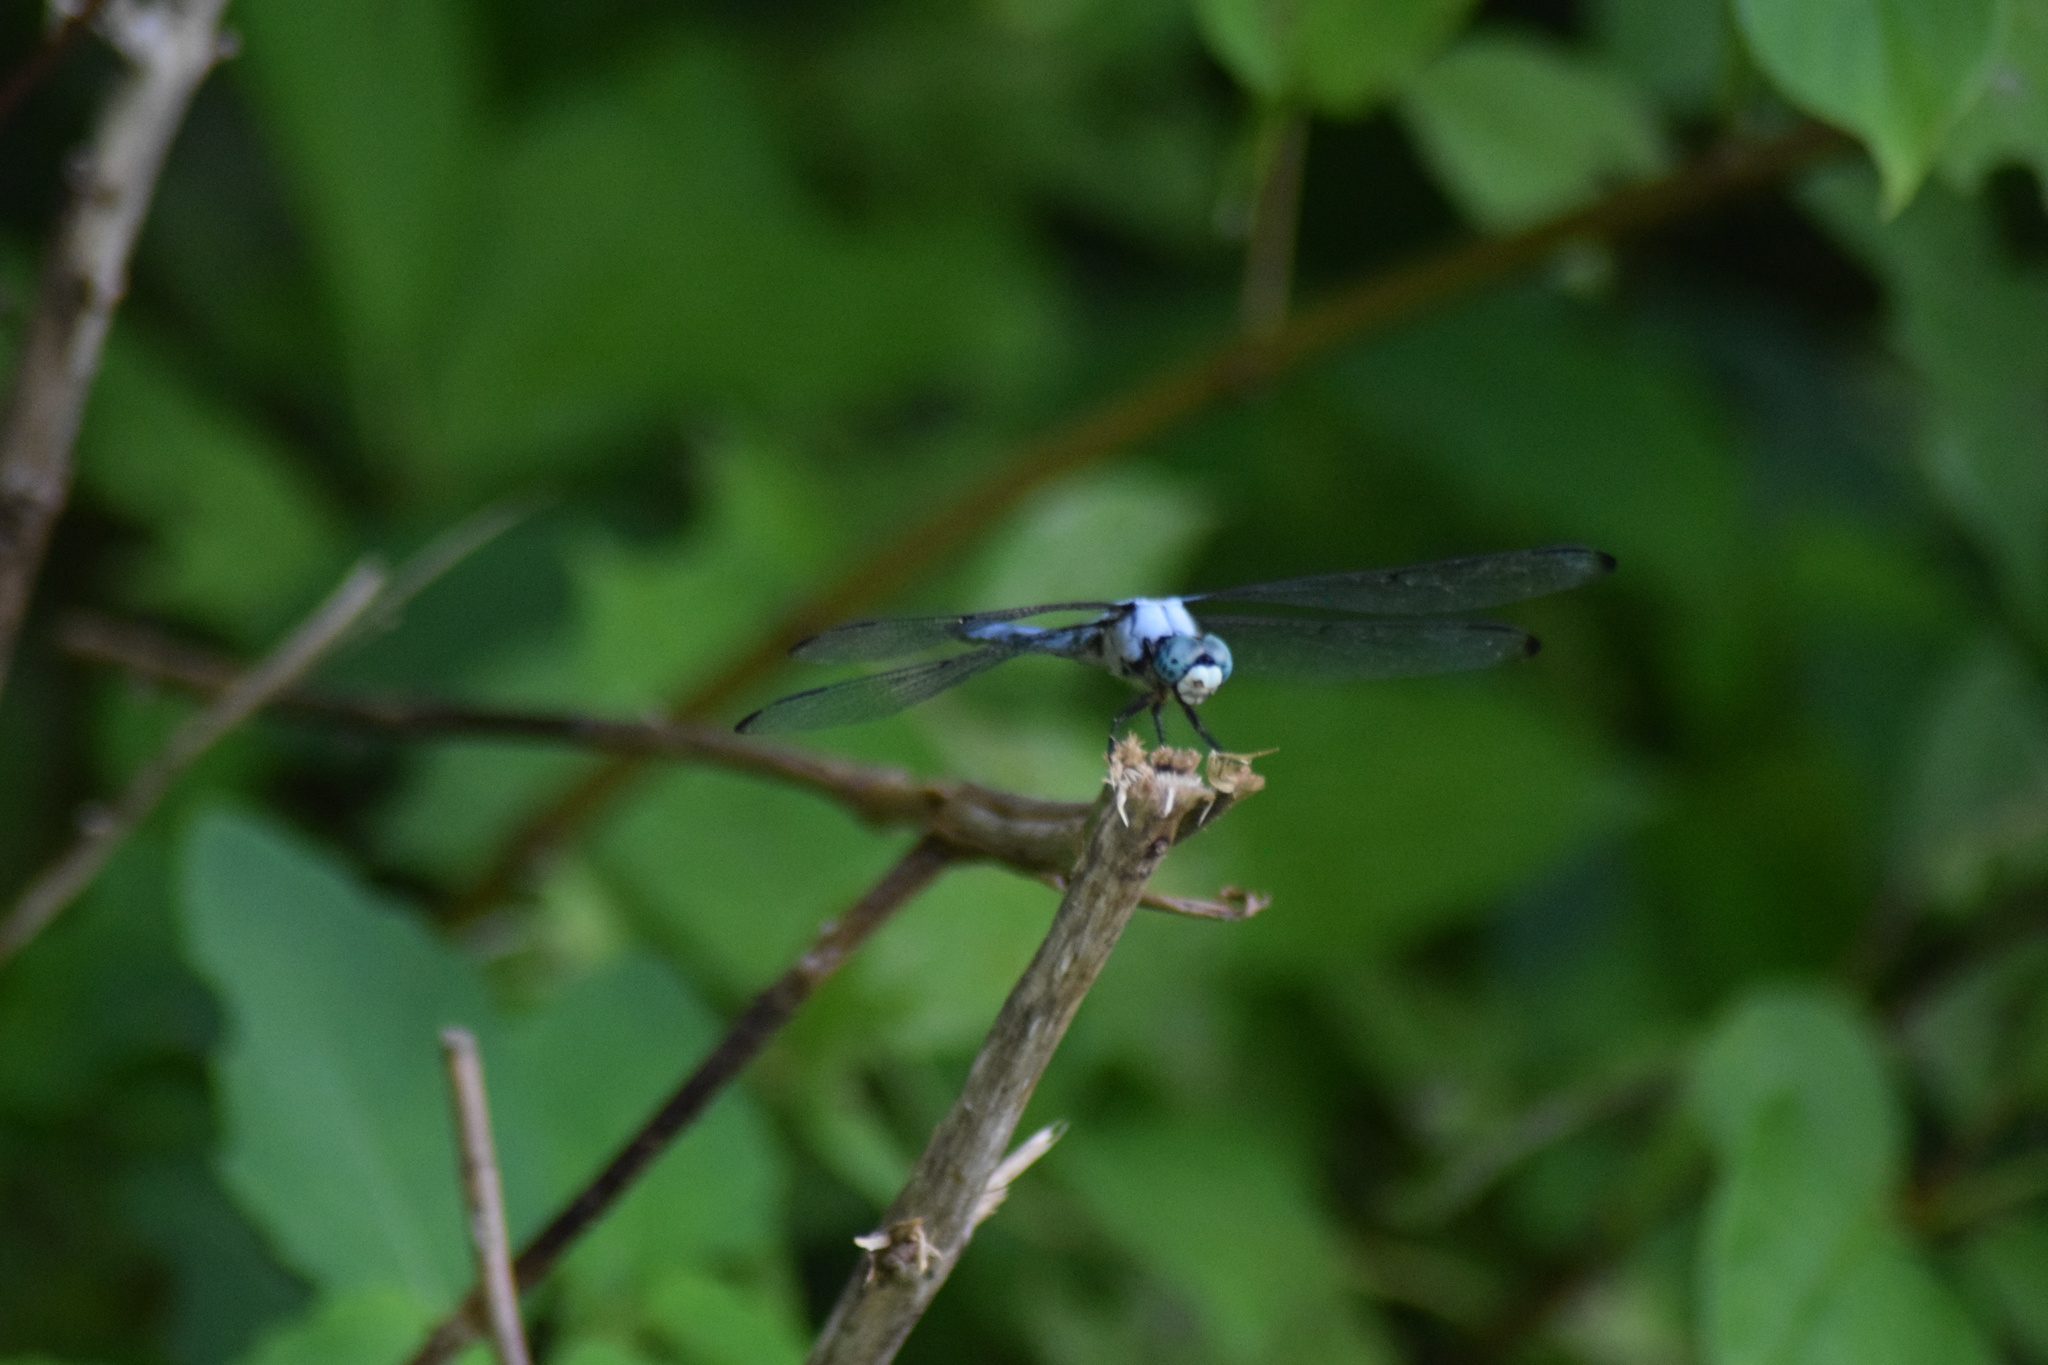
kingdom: Animalia
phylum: Arthropoda
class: Insecta
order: Odonata
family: Libellulidae
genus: Libellula
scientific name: Libellula vibrans
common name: Great blue skimmer
